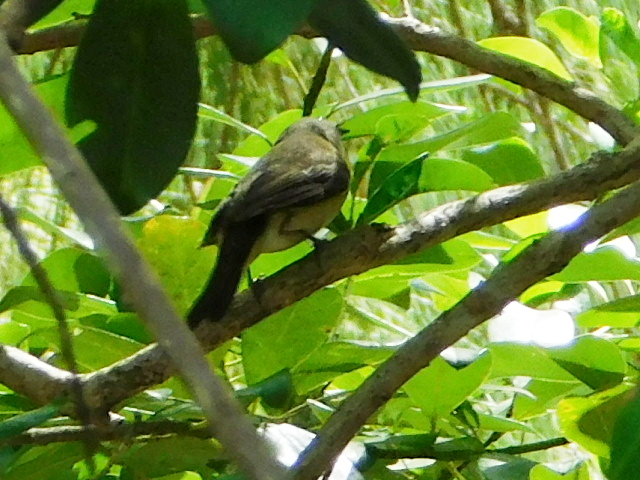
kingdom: Animalia
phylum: Chordata
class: Aves
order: Passeriformes
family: Parulidae
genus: Setophaga
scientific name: Setophaga ruticilla
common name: American redstart
